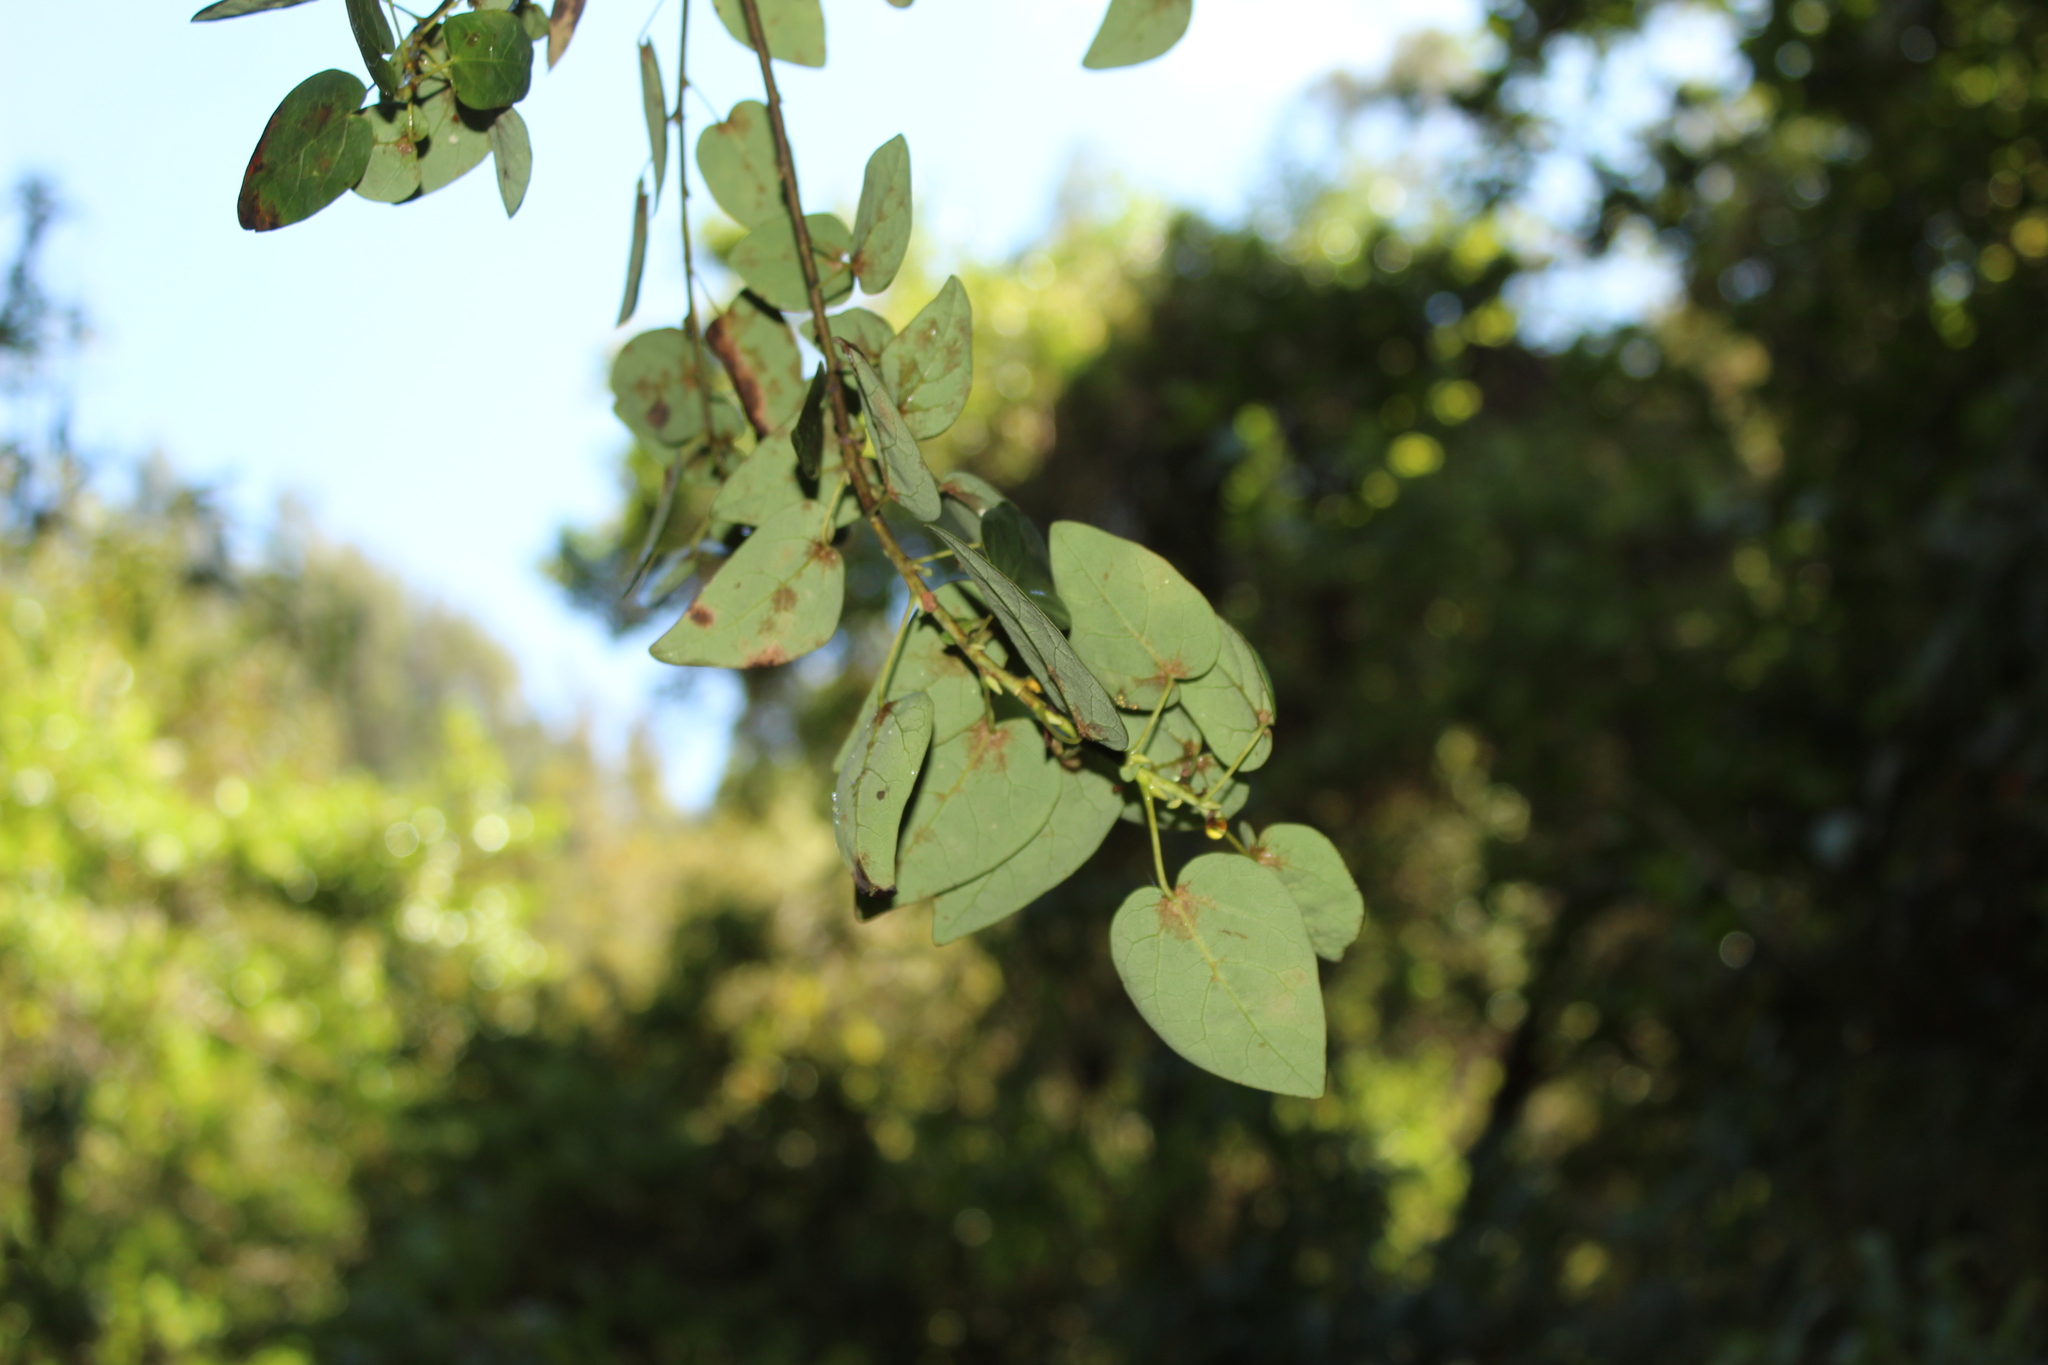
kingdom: Plantae
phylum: Tracheophyta
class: Magnoliopsida
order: Oxalidales
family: Elaeocarpaceae
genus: Vallea
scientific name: Vallea stipularis
